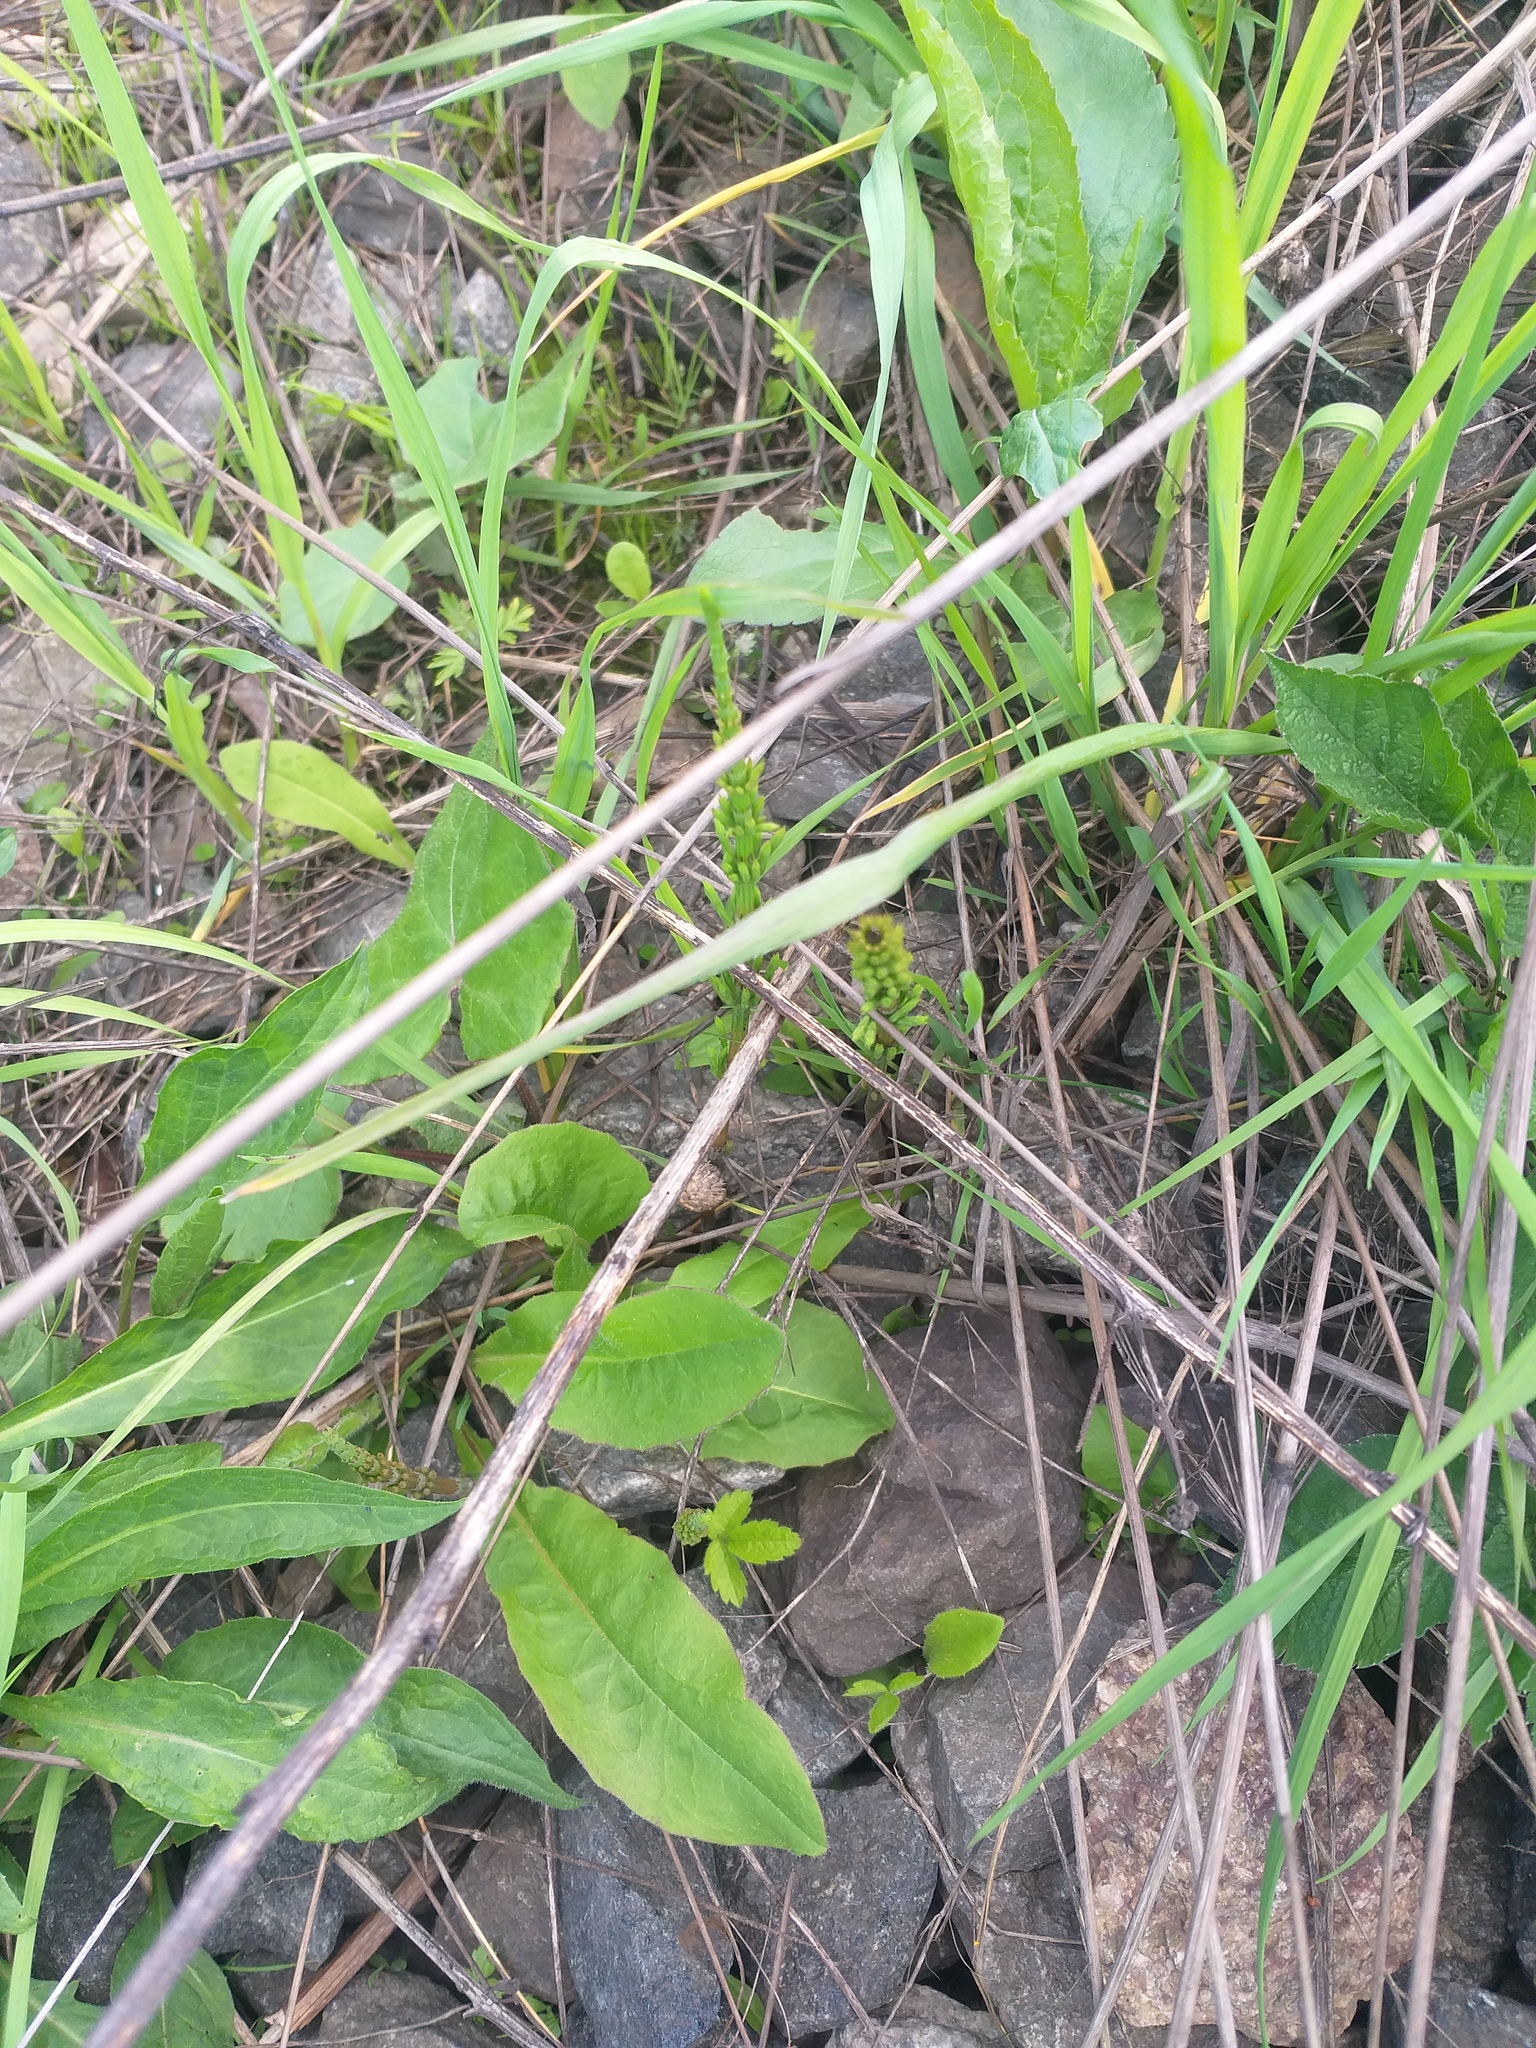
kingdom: Plantae
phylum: Tracheophyta
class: Polypodiopsida
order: Equisetales
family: Equisetaceae
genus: Equisetum
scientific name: Equisetum arvense
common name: Field horsetail
